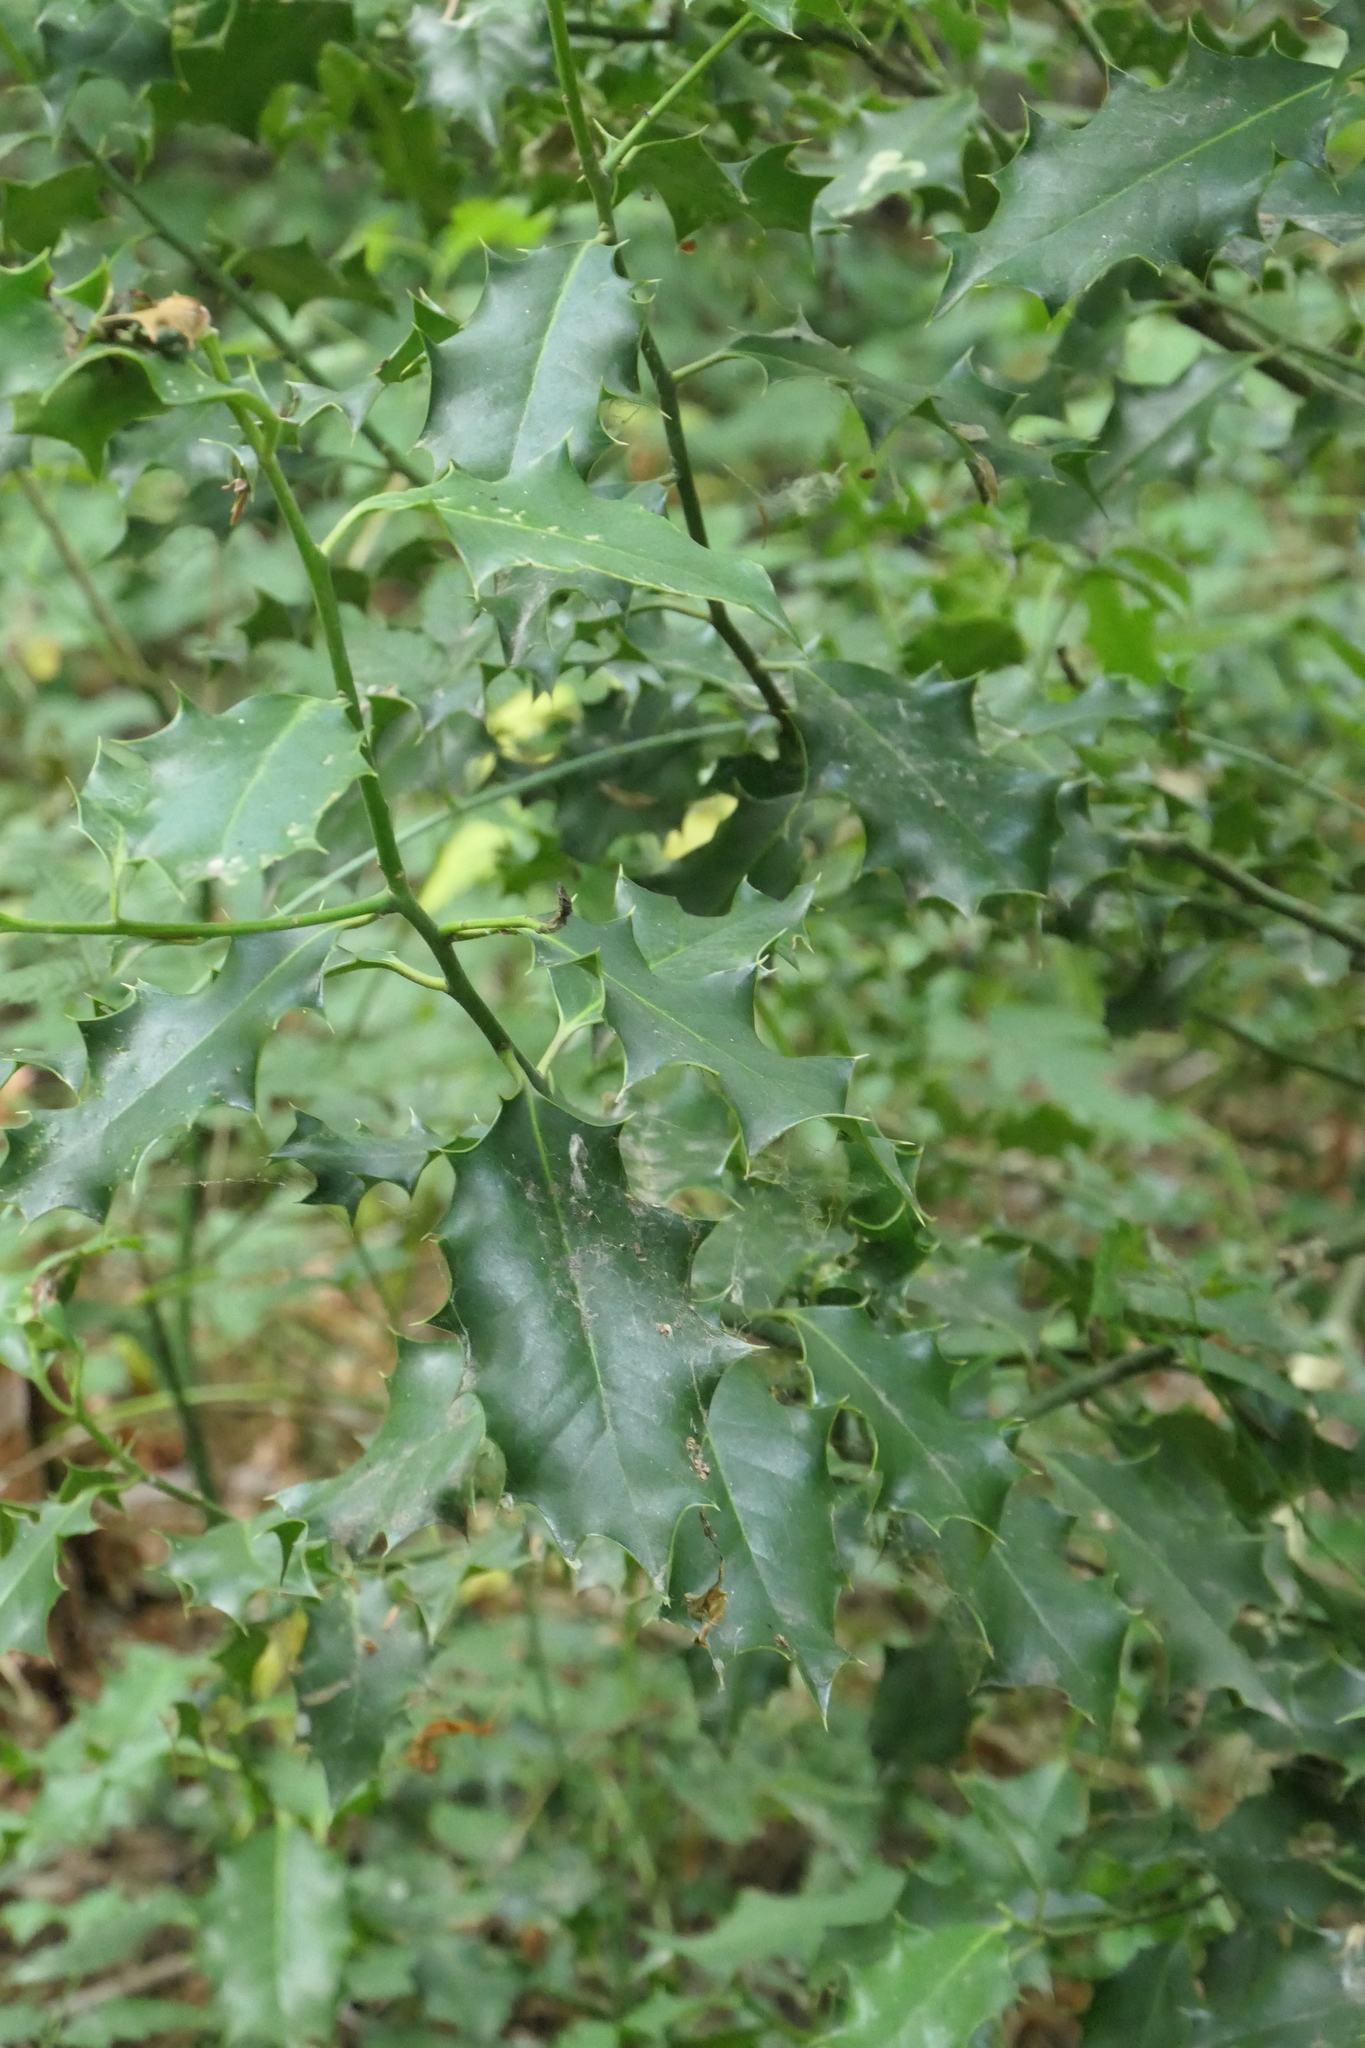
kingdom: Plantae
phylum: Tracheophyta
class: Magnoliopsida
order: Aquifoliales
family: Aquifoliaceae
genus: Ilex
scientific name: Ilex aquifolium
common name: English holly
